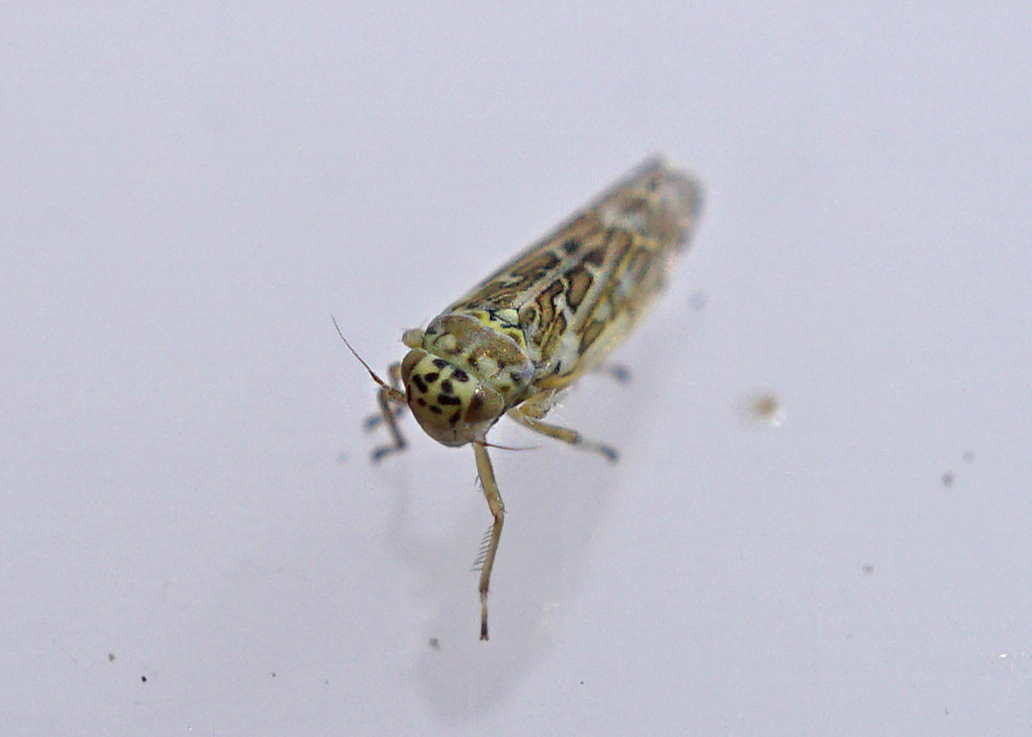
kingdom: Animalia
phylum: Arthropoda
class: Insecta
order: Hemiptera
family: Cicadellidae
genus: Eupteryx
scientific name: Eupteryx decemnotata
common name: Ligurian leafhopper
